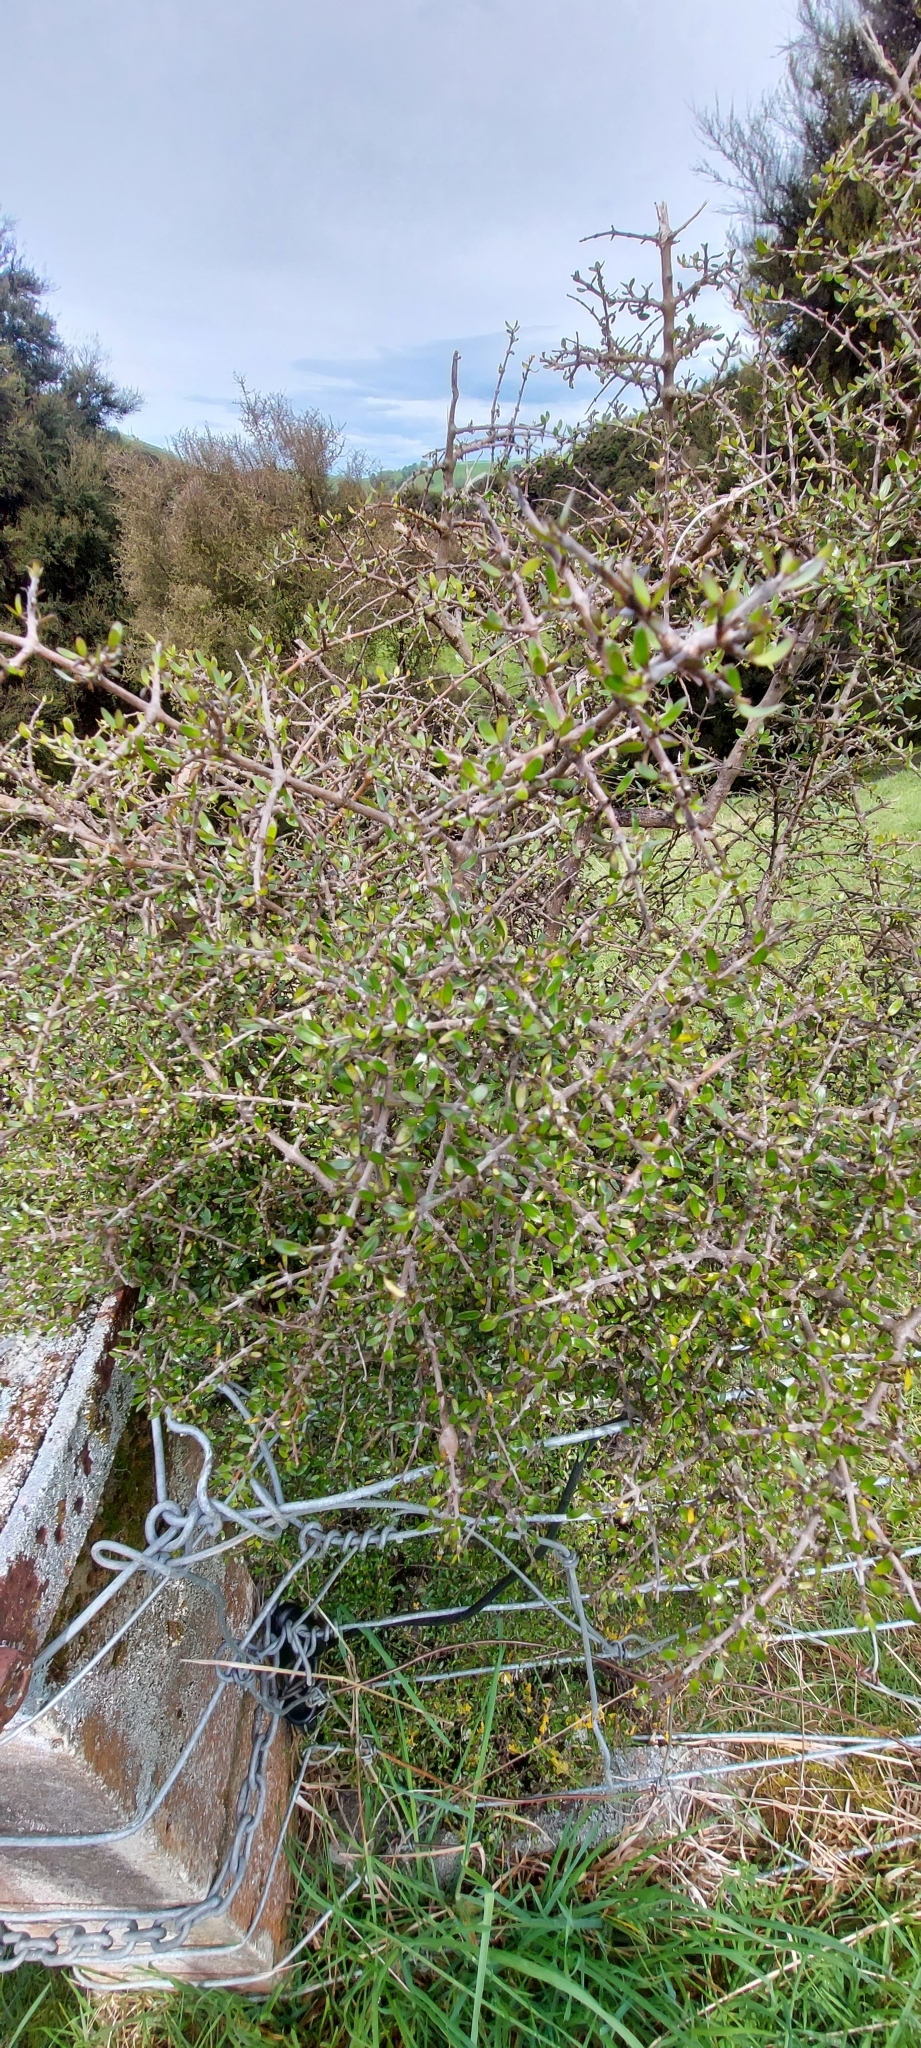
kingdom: Plantae
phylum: Tracheophyta
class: Magnoliopsida
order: Gentianales
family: Rubiaceae
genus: Coprosma
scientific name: Coprosma propinqua
